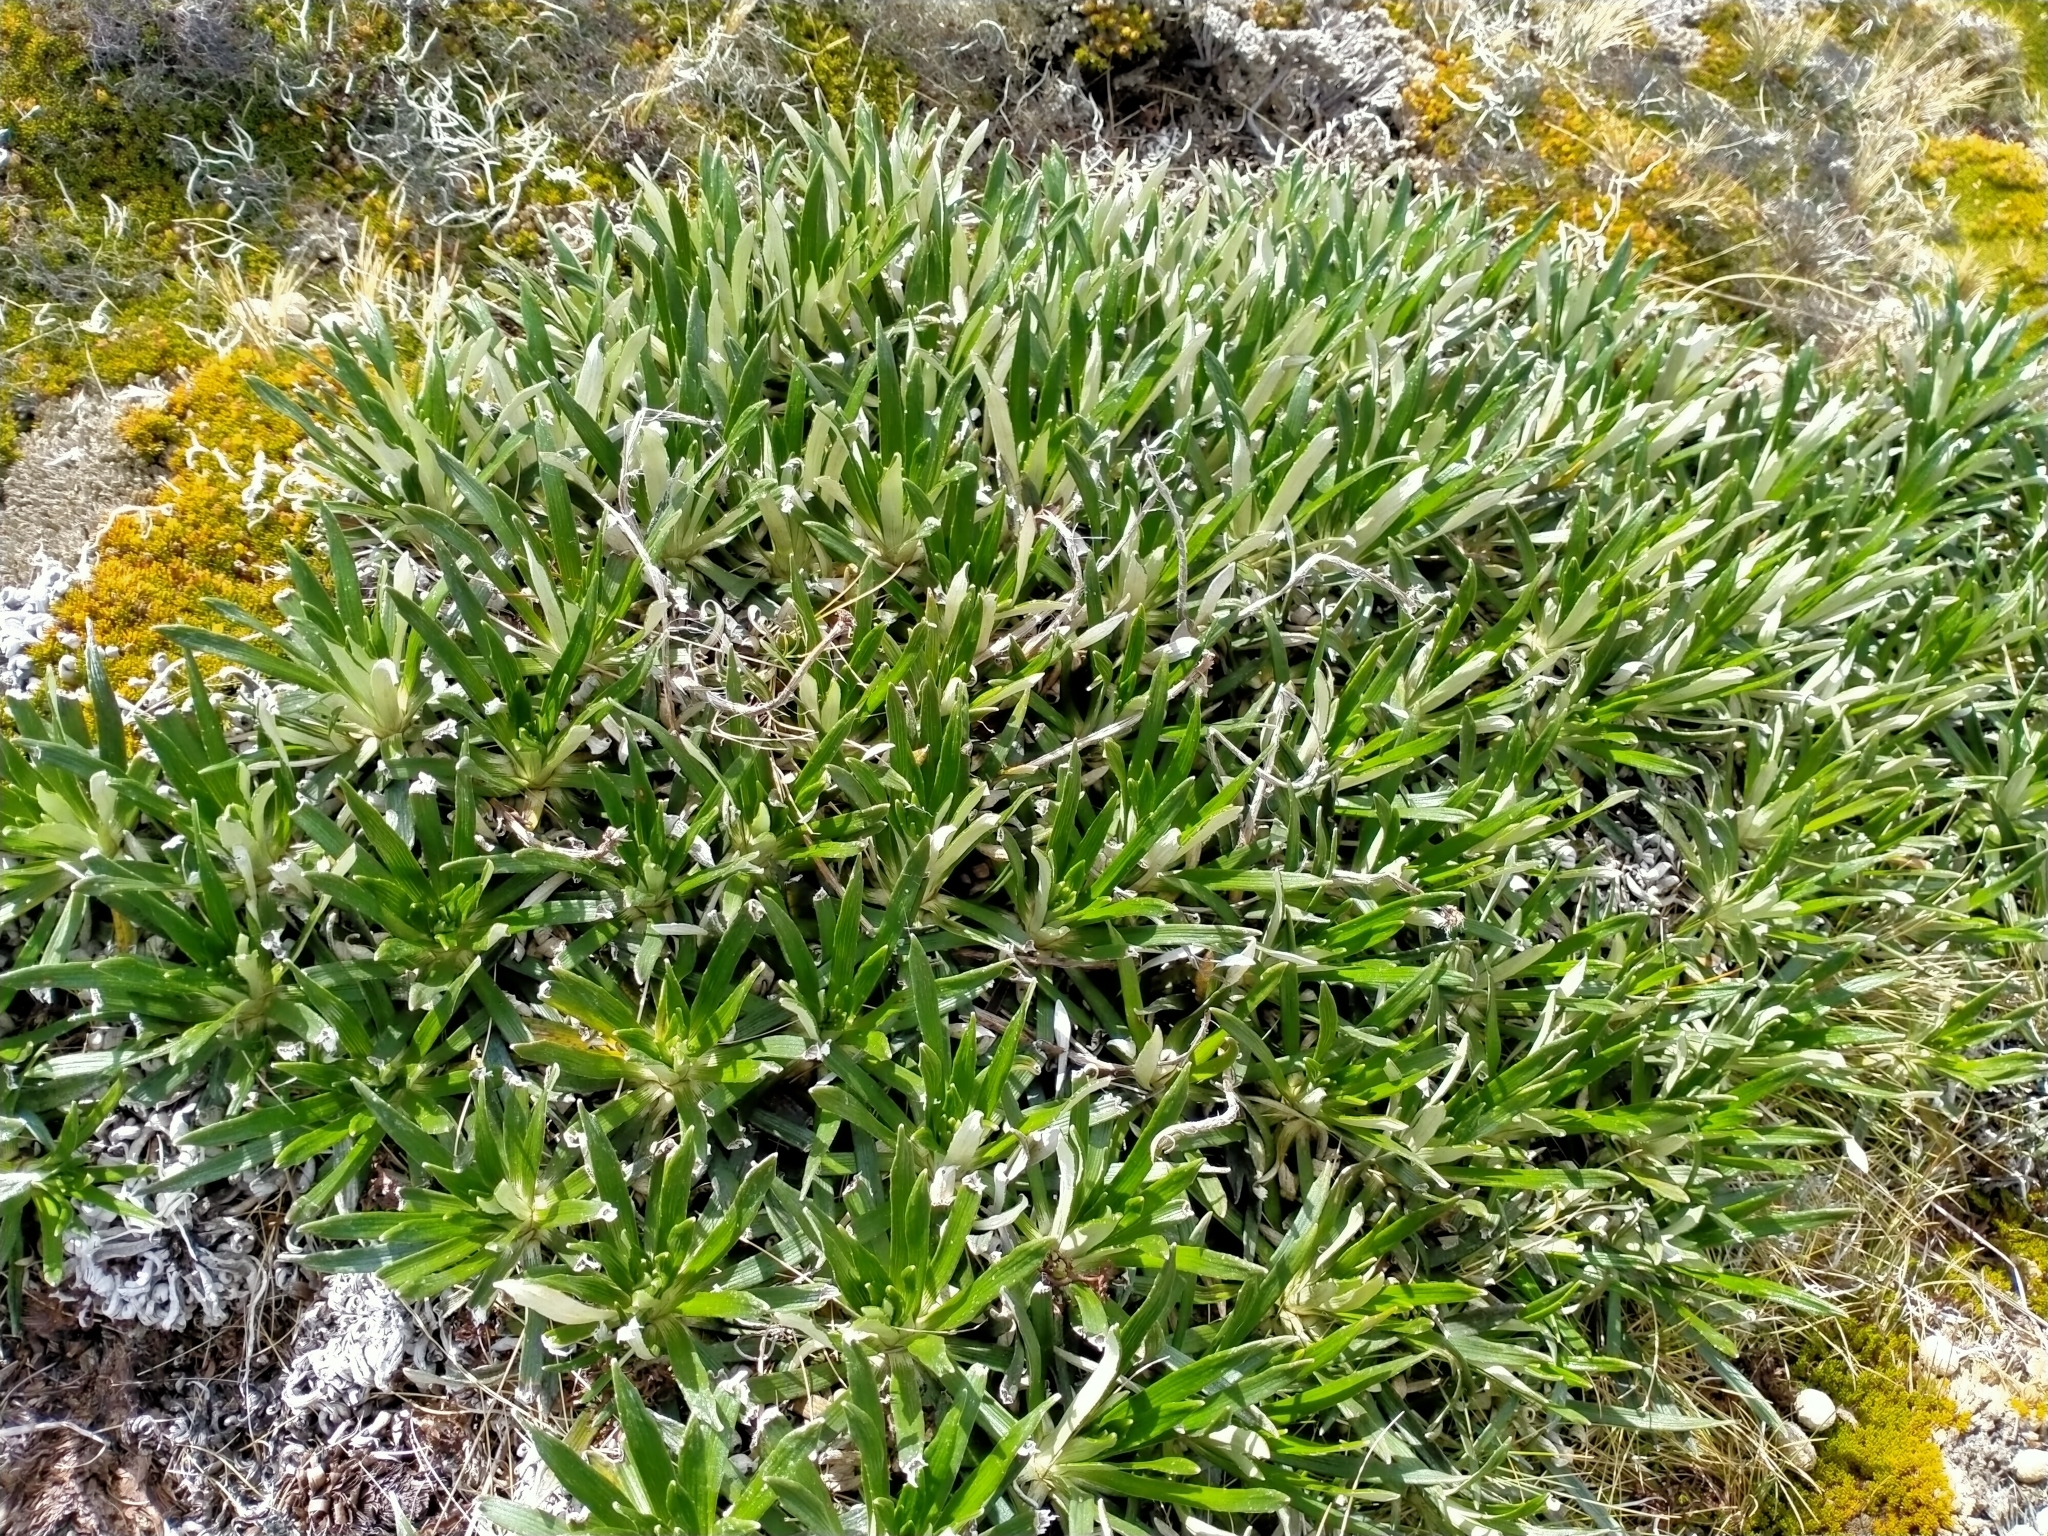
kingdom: Plantae
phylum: Tracheophyta
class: Magnoliopsida
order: Asterales
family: Asteraceae
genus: Celmisia
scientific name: Celmisia viscosa
